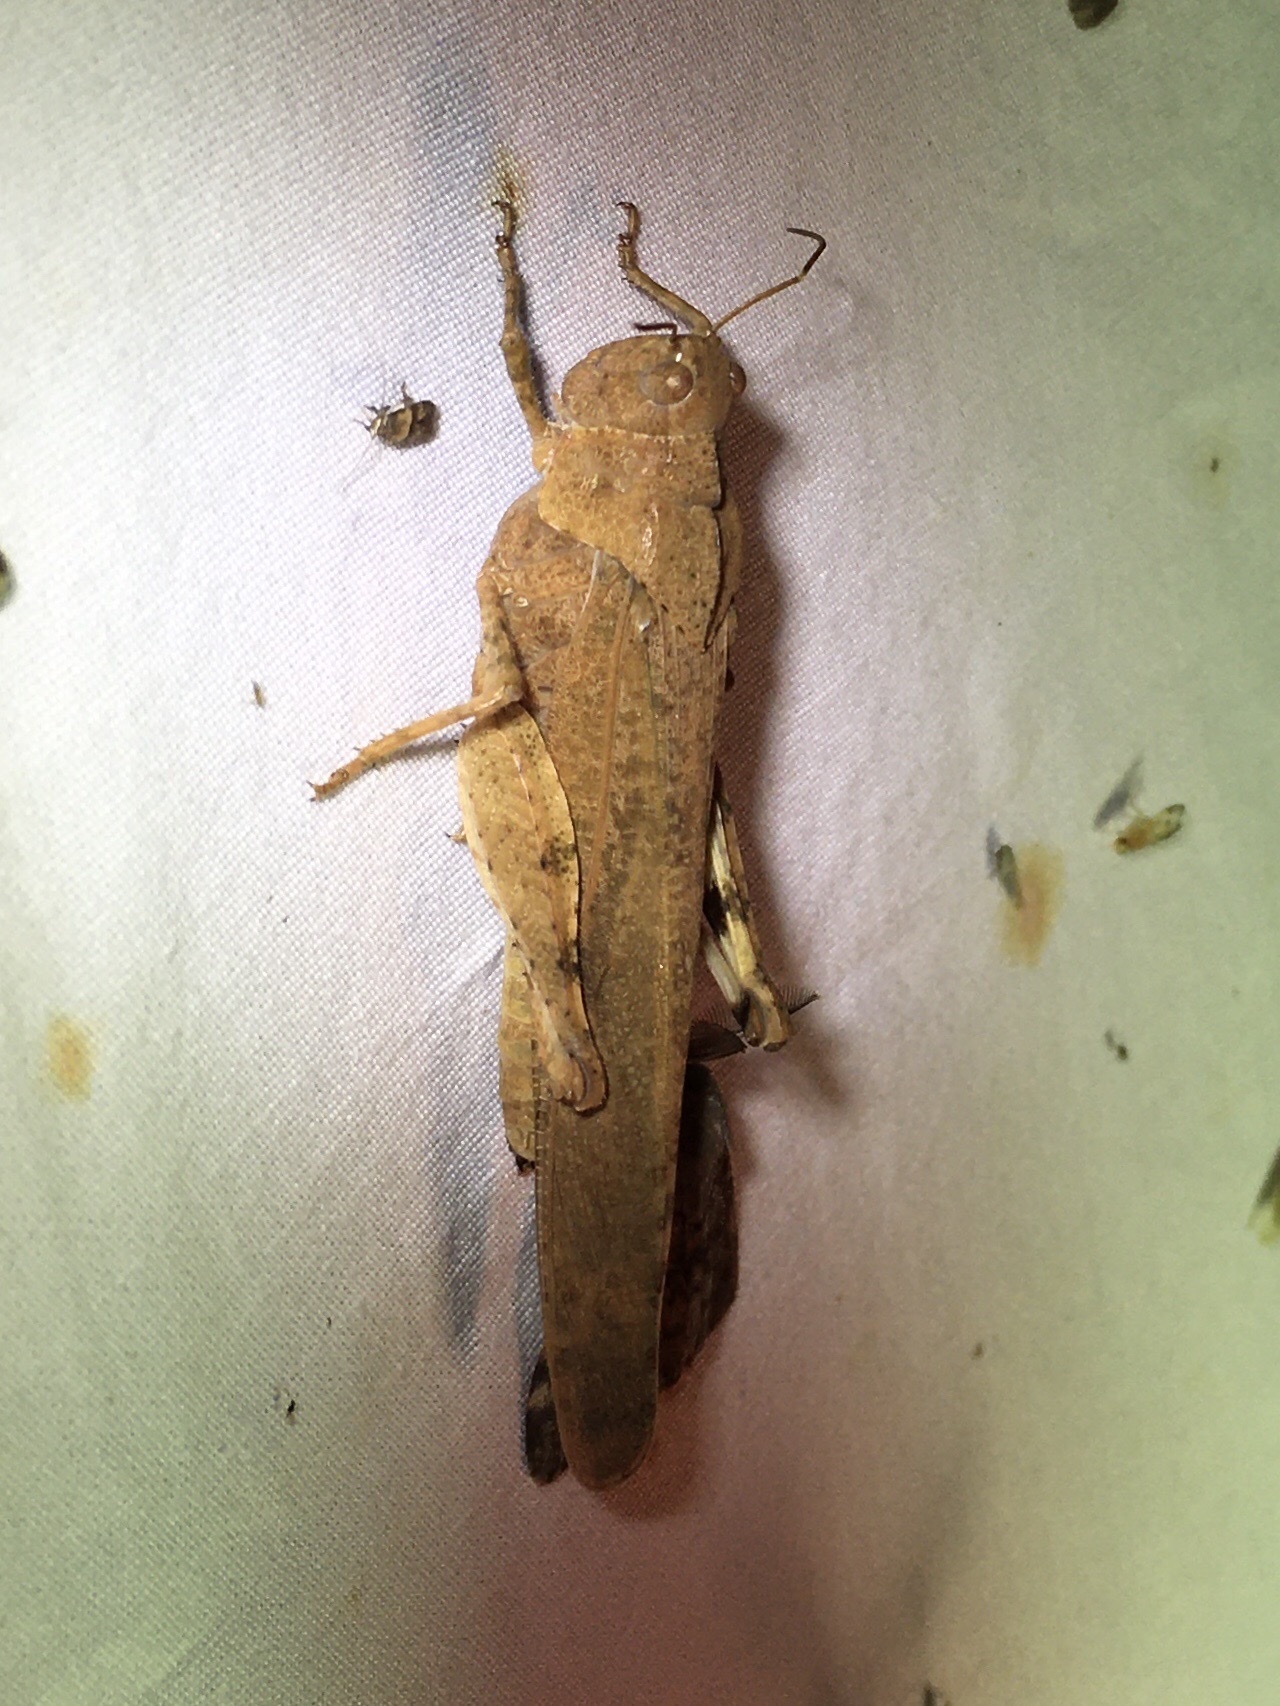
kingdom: Animalia
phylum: Arthropoda
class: Insecta
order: Orthoptera
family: Acrididae
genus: Dissosteira
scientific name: Dissosteira carolina
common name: Carolina grasshopper
